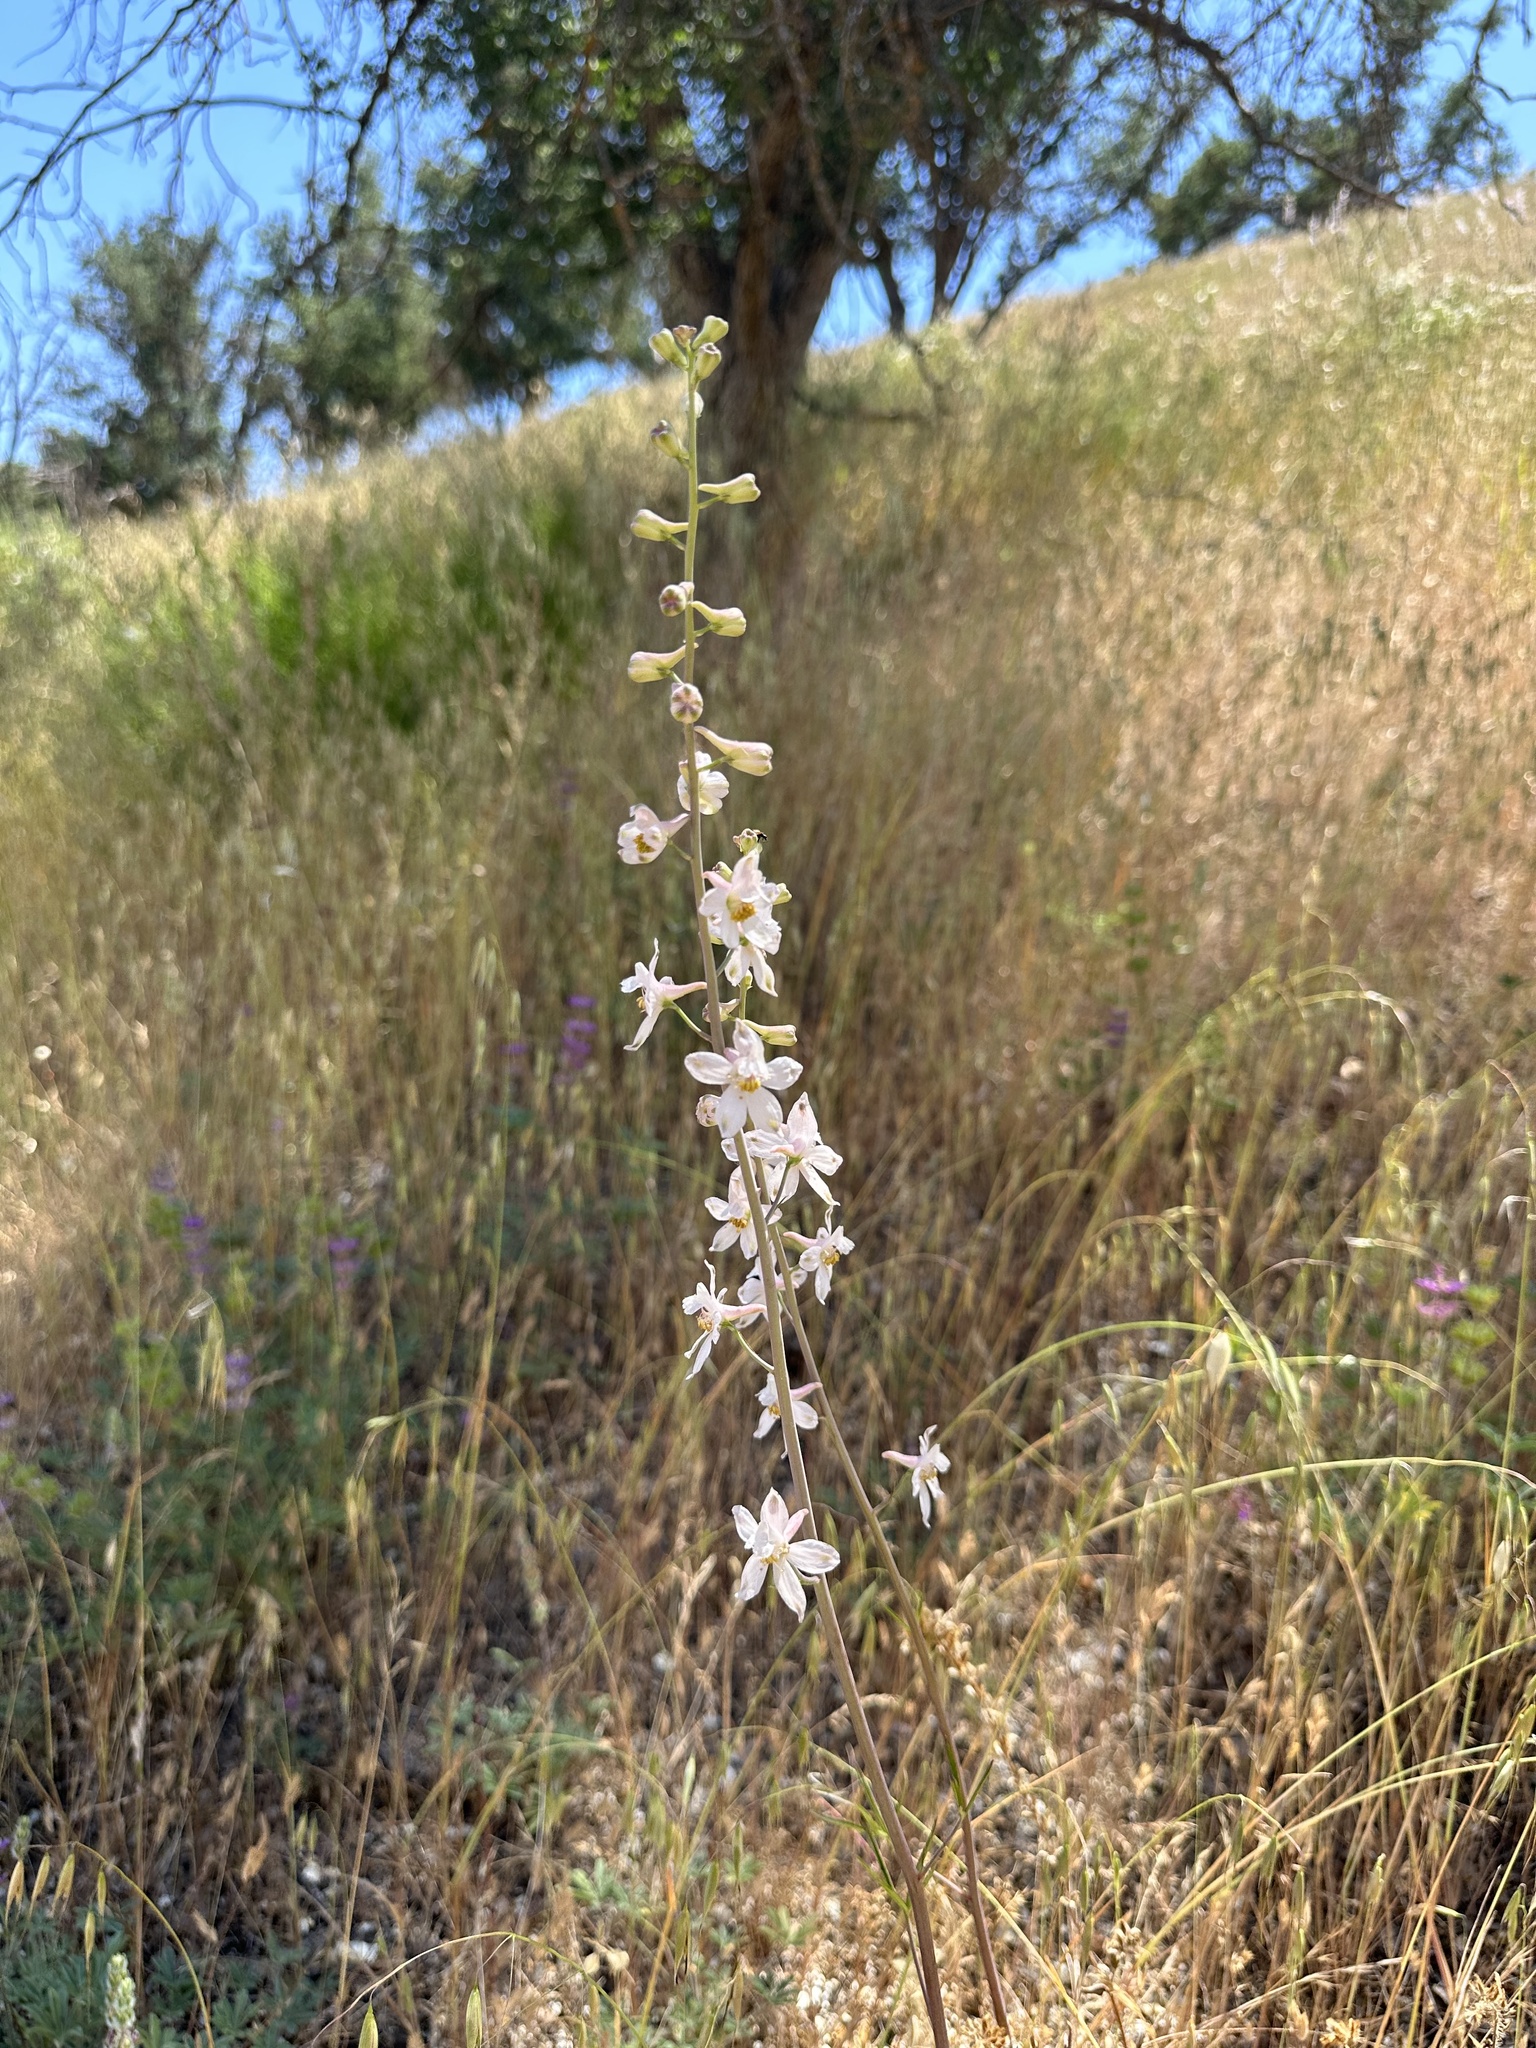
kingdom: Plantae
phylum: Tracheophyta
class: Magnoliopsida
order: Ranunculales
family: Ranunculaceae
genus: Delphinium
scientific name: Delphinium gypsophilum
